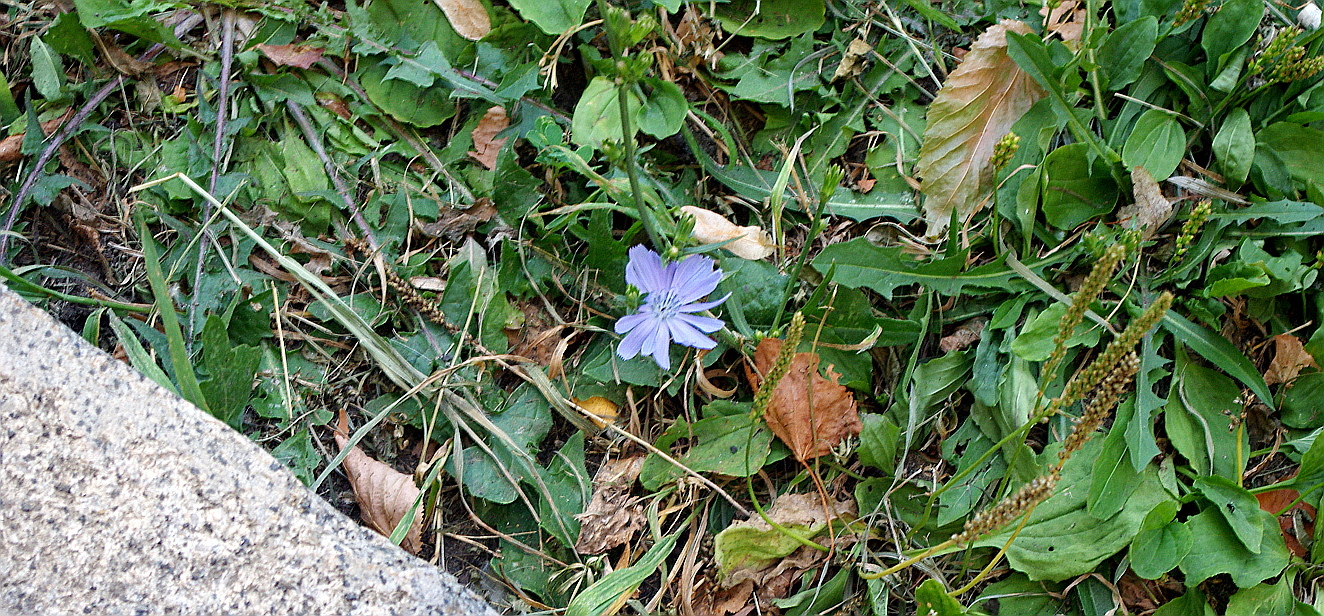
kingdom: Plantae
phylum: Tracheophyta
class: Magnoliopsida
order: Asterales
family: Asteraceae
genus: Cichorium
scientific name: Cichorium intybus
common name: Chicory
